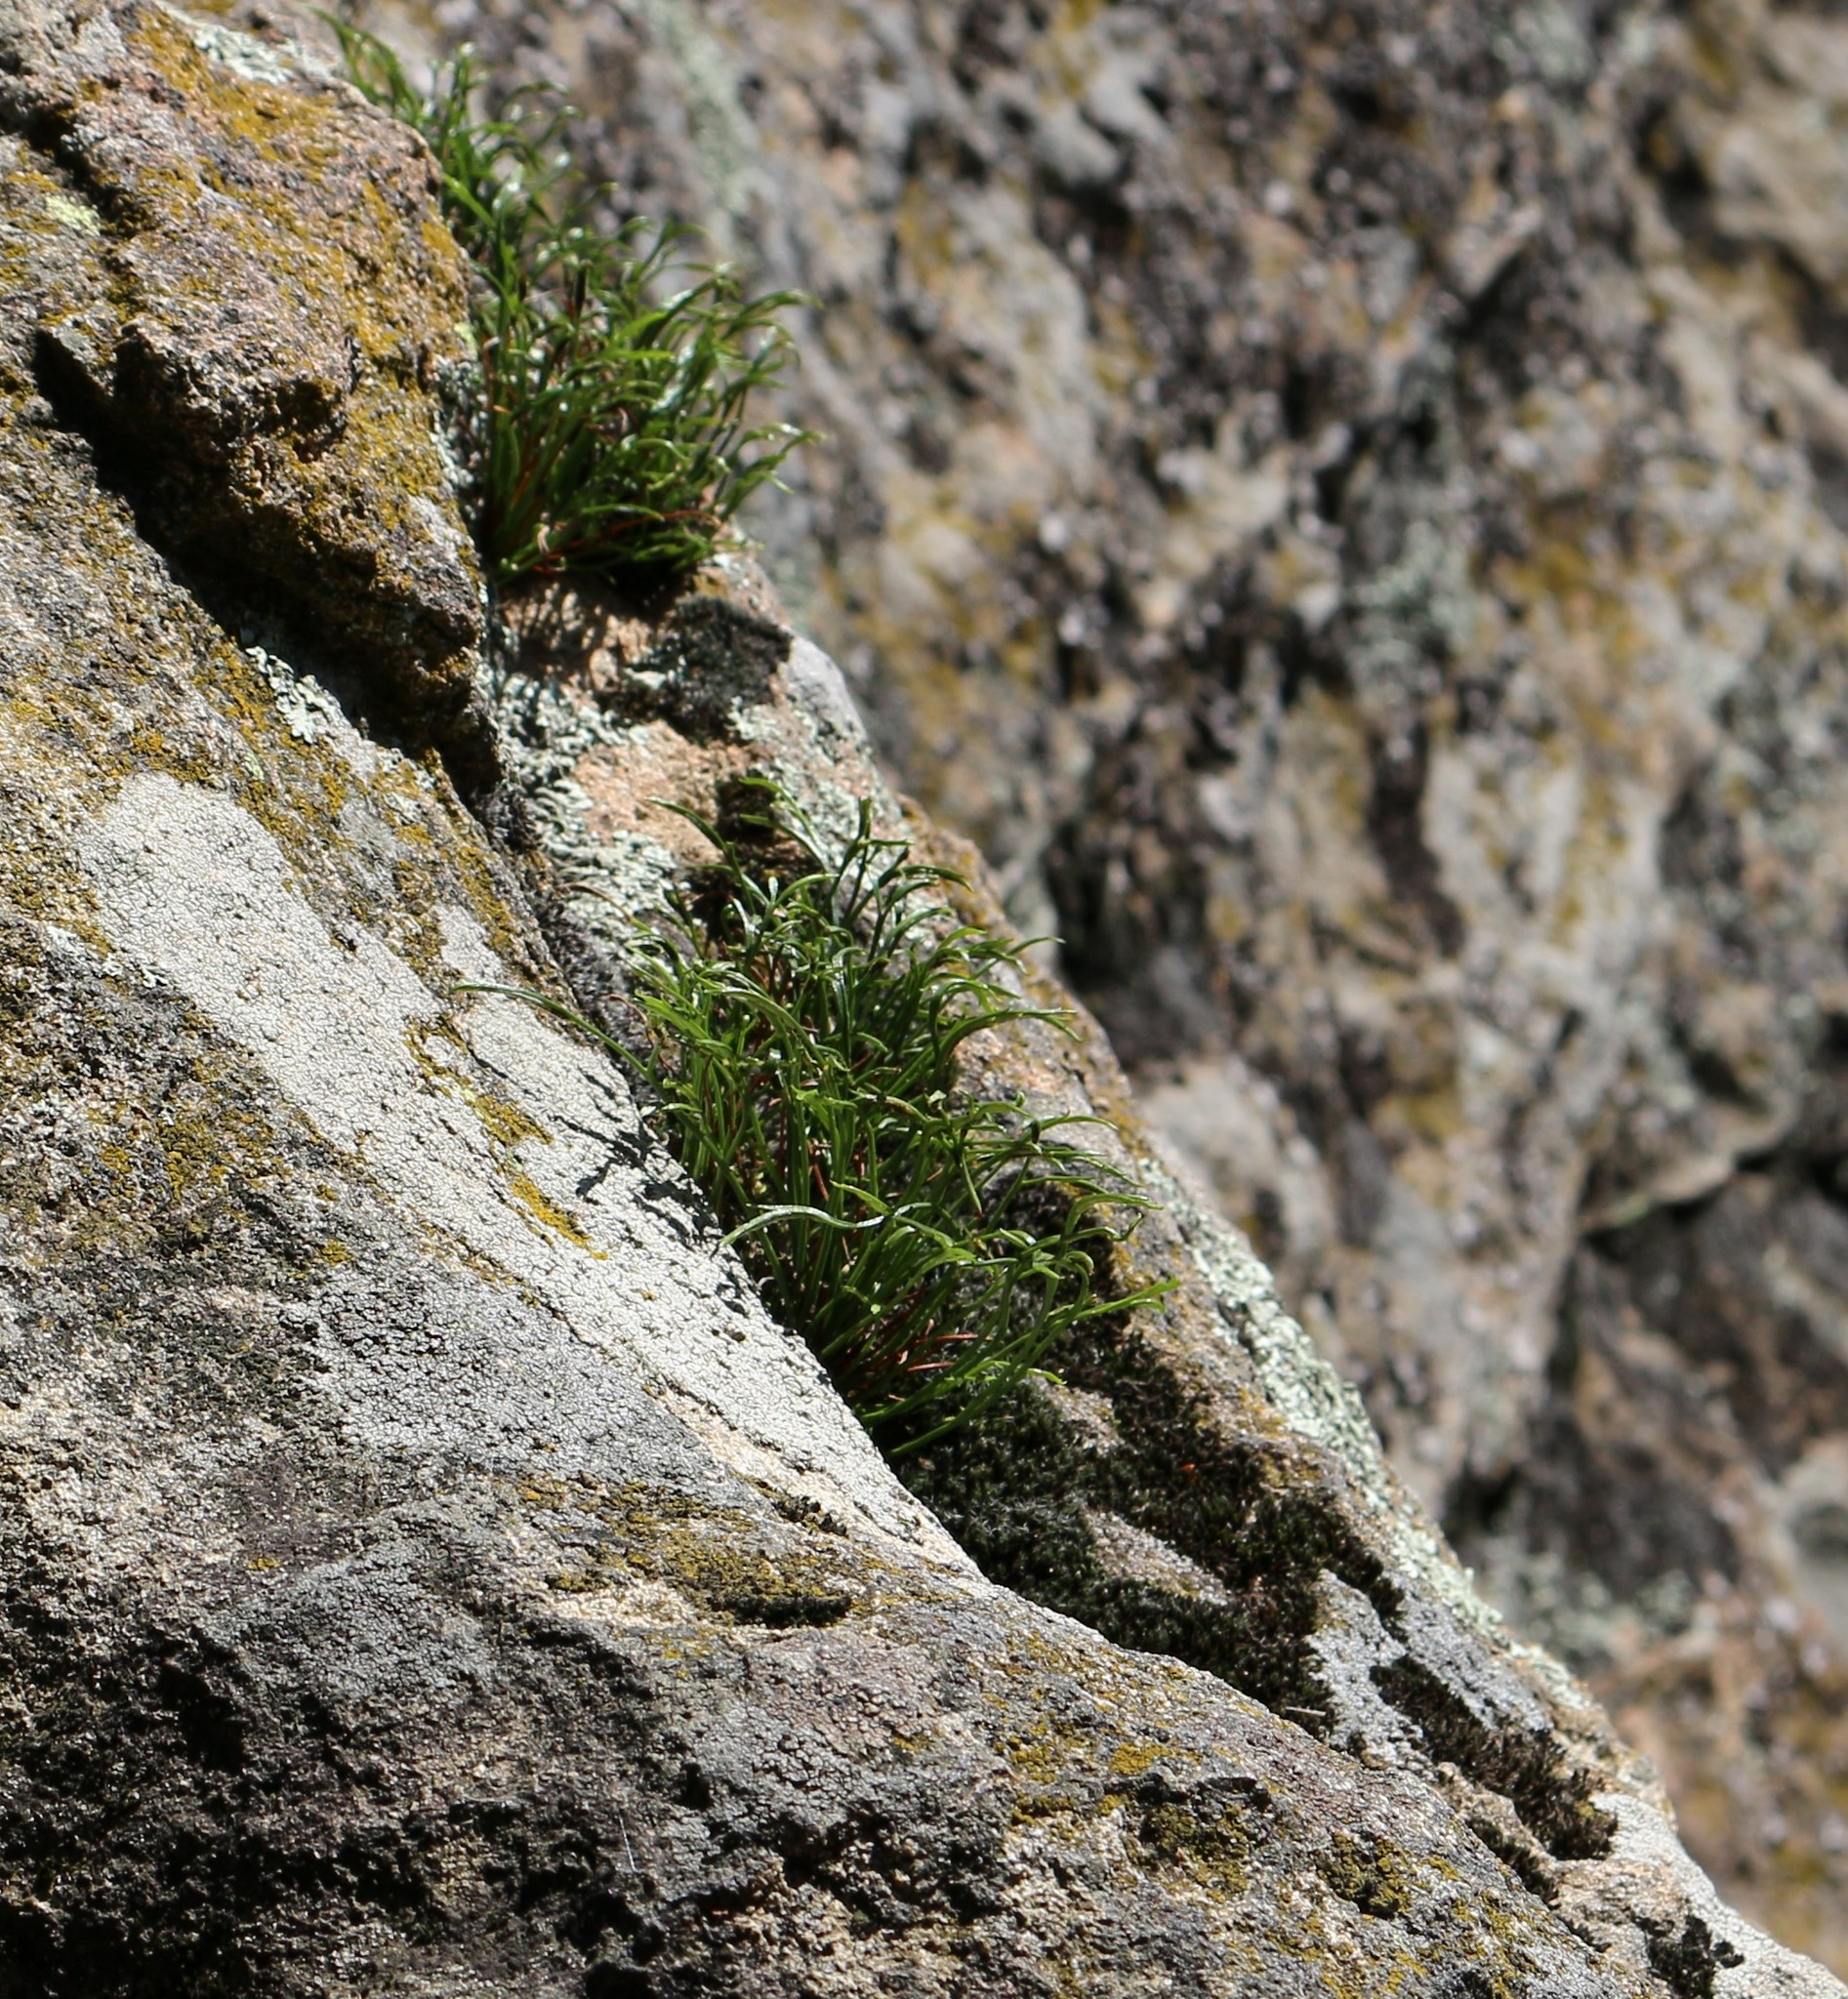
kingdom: Plantae
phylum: Tracheophyta
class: Polypodiopsida
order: Polypodiales
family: Aspleniaceae
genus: Asplenium
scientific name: Asplenium septentrionale
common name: Forked spleenwort
